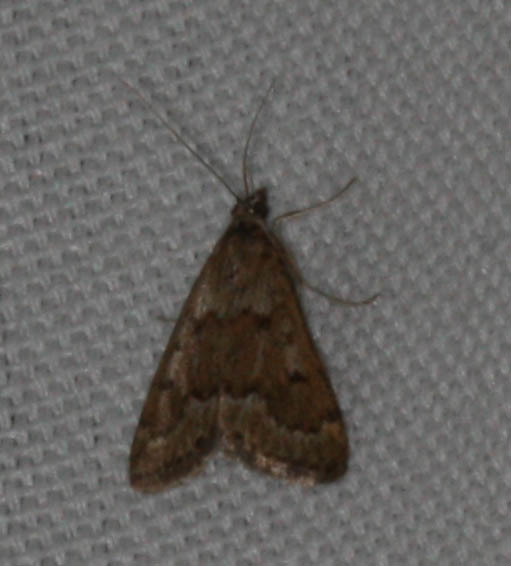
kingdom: Animalia
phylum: Arthropoda
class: Insecta
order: Lepidoptera
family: Crambidae
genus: Achyra
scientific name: Achyra occidentalis
